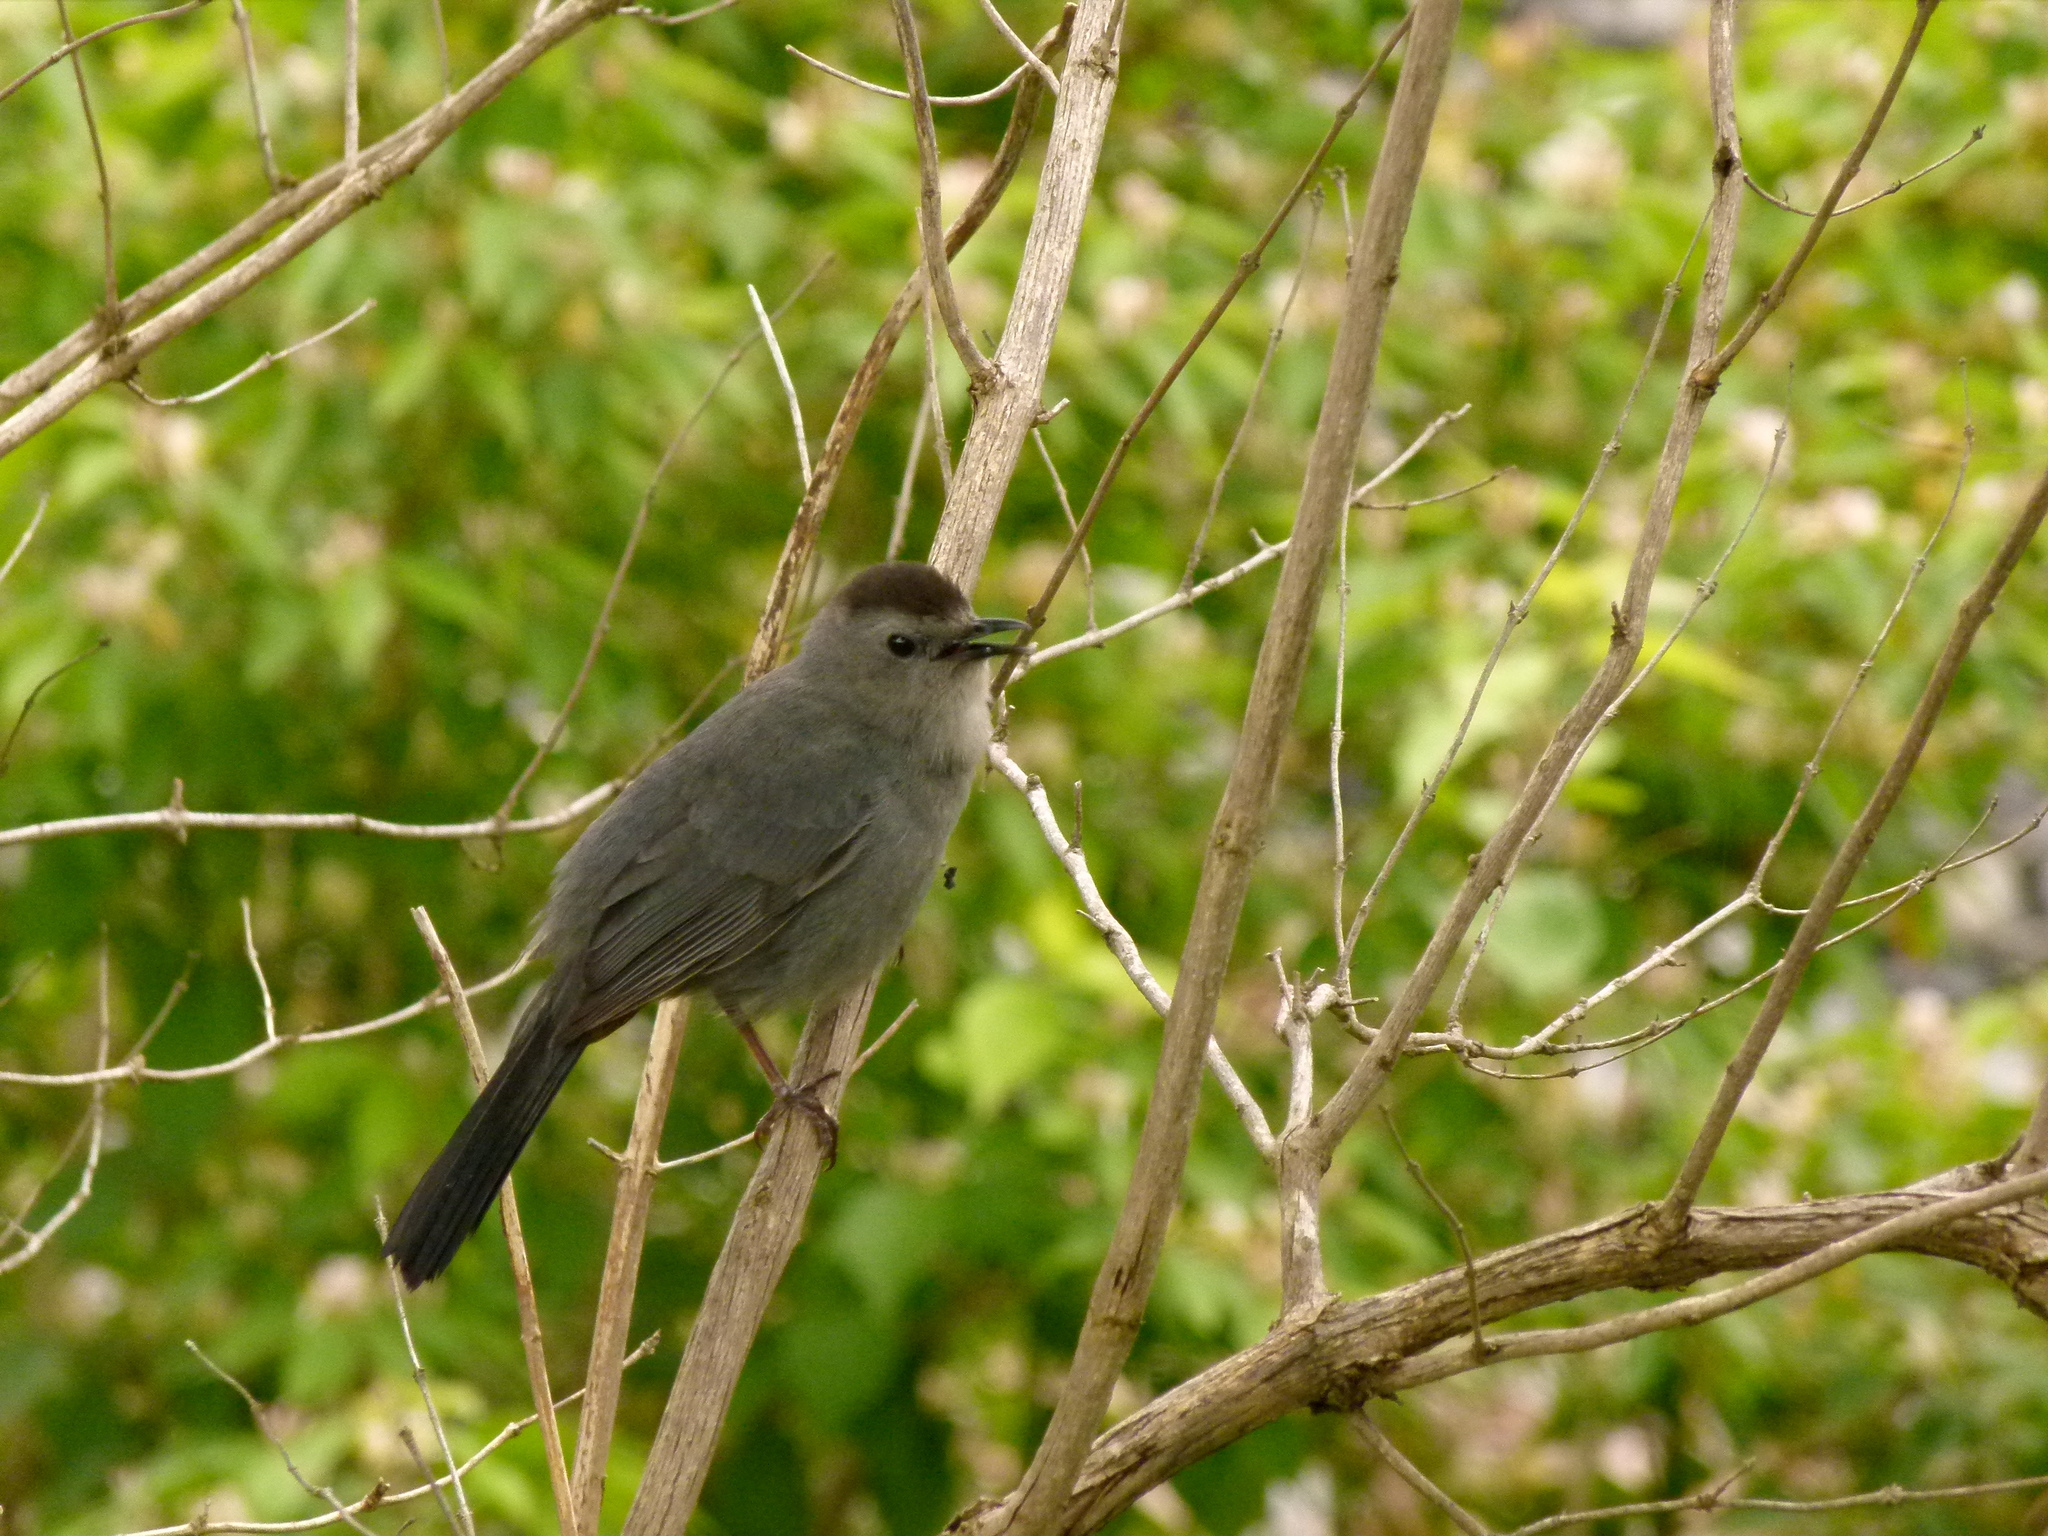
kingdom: Animalia
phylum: Chordata
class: Aves
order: Passeriformes
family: Mimidae
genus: Dumetella
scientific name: Dumetella carolinensis
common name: Gray catbird
